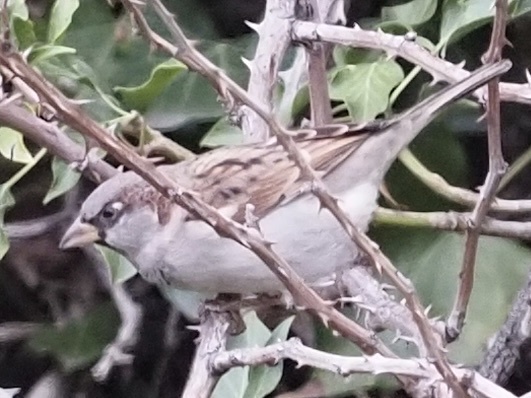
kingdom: Animalia
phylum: Chordata
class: Aves
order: Passeriformes
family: Passeridae
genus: Passer
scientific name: Passer domesticus
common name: House sparrow
